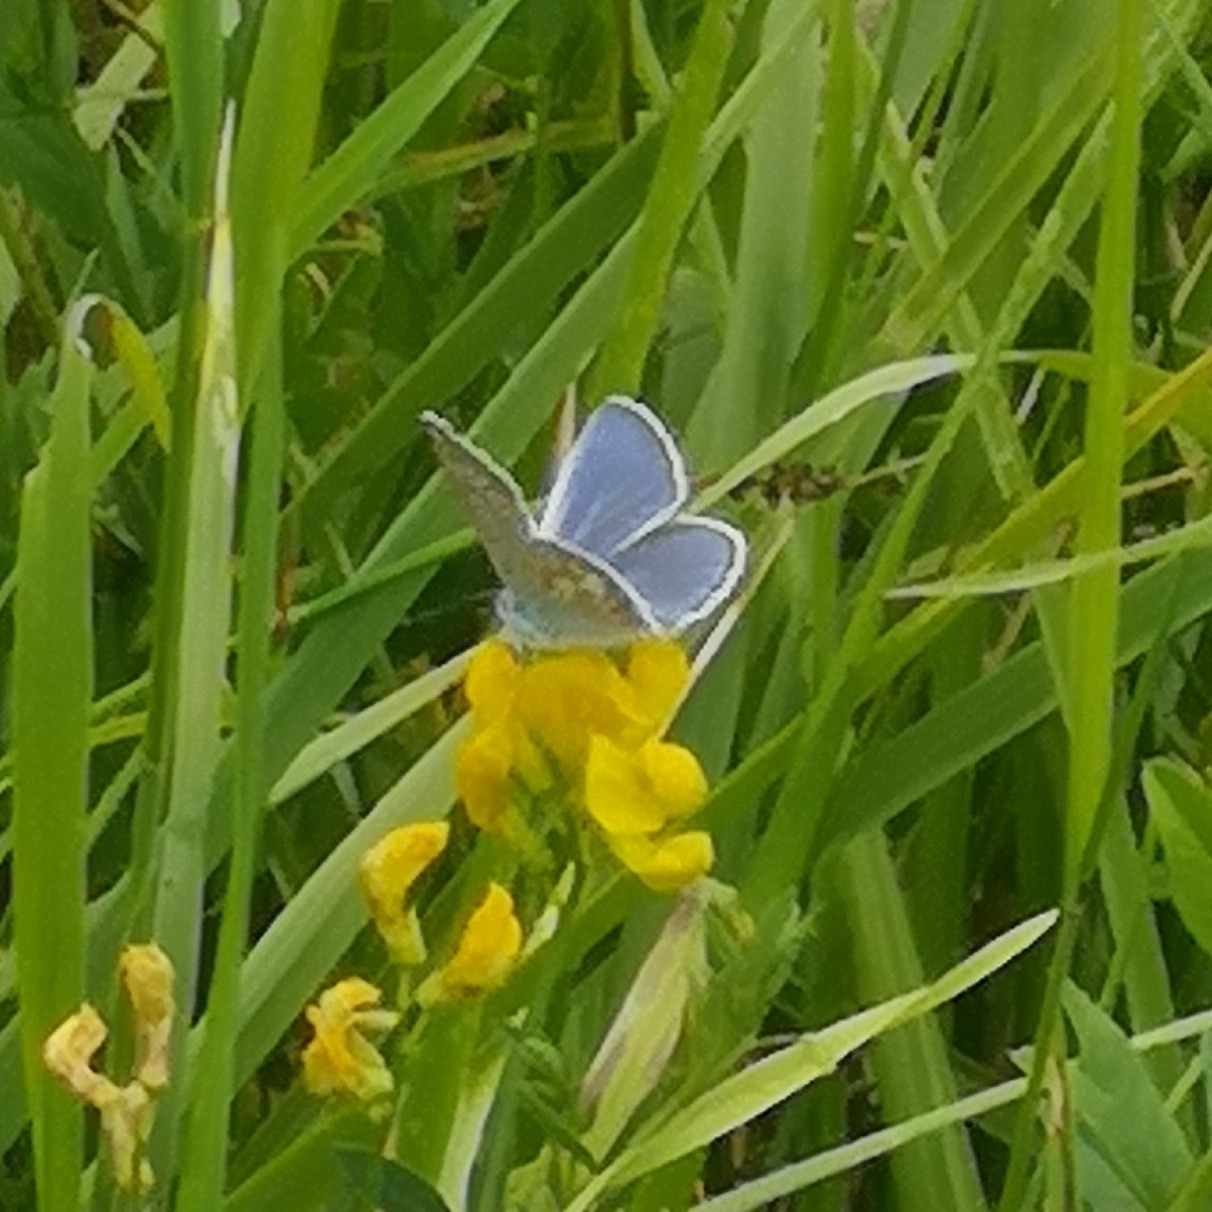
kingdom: Animalia
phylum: Arthropoda
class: Insecta
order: Lepidoptera
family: Lycaenidae
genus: Polyommatus
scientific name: Polyommatus icarus
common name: Common blue
